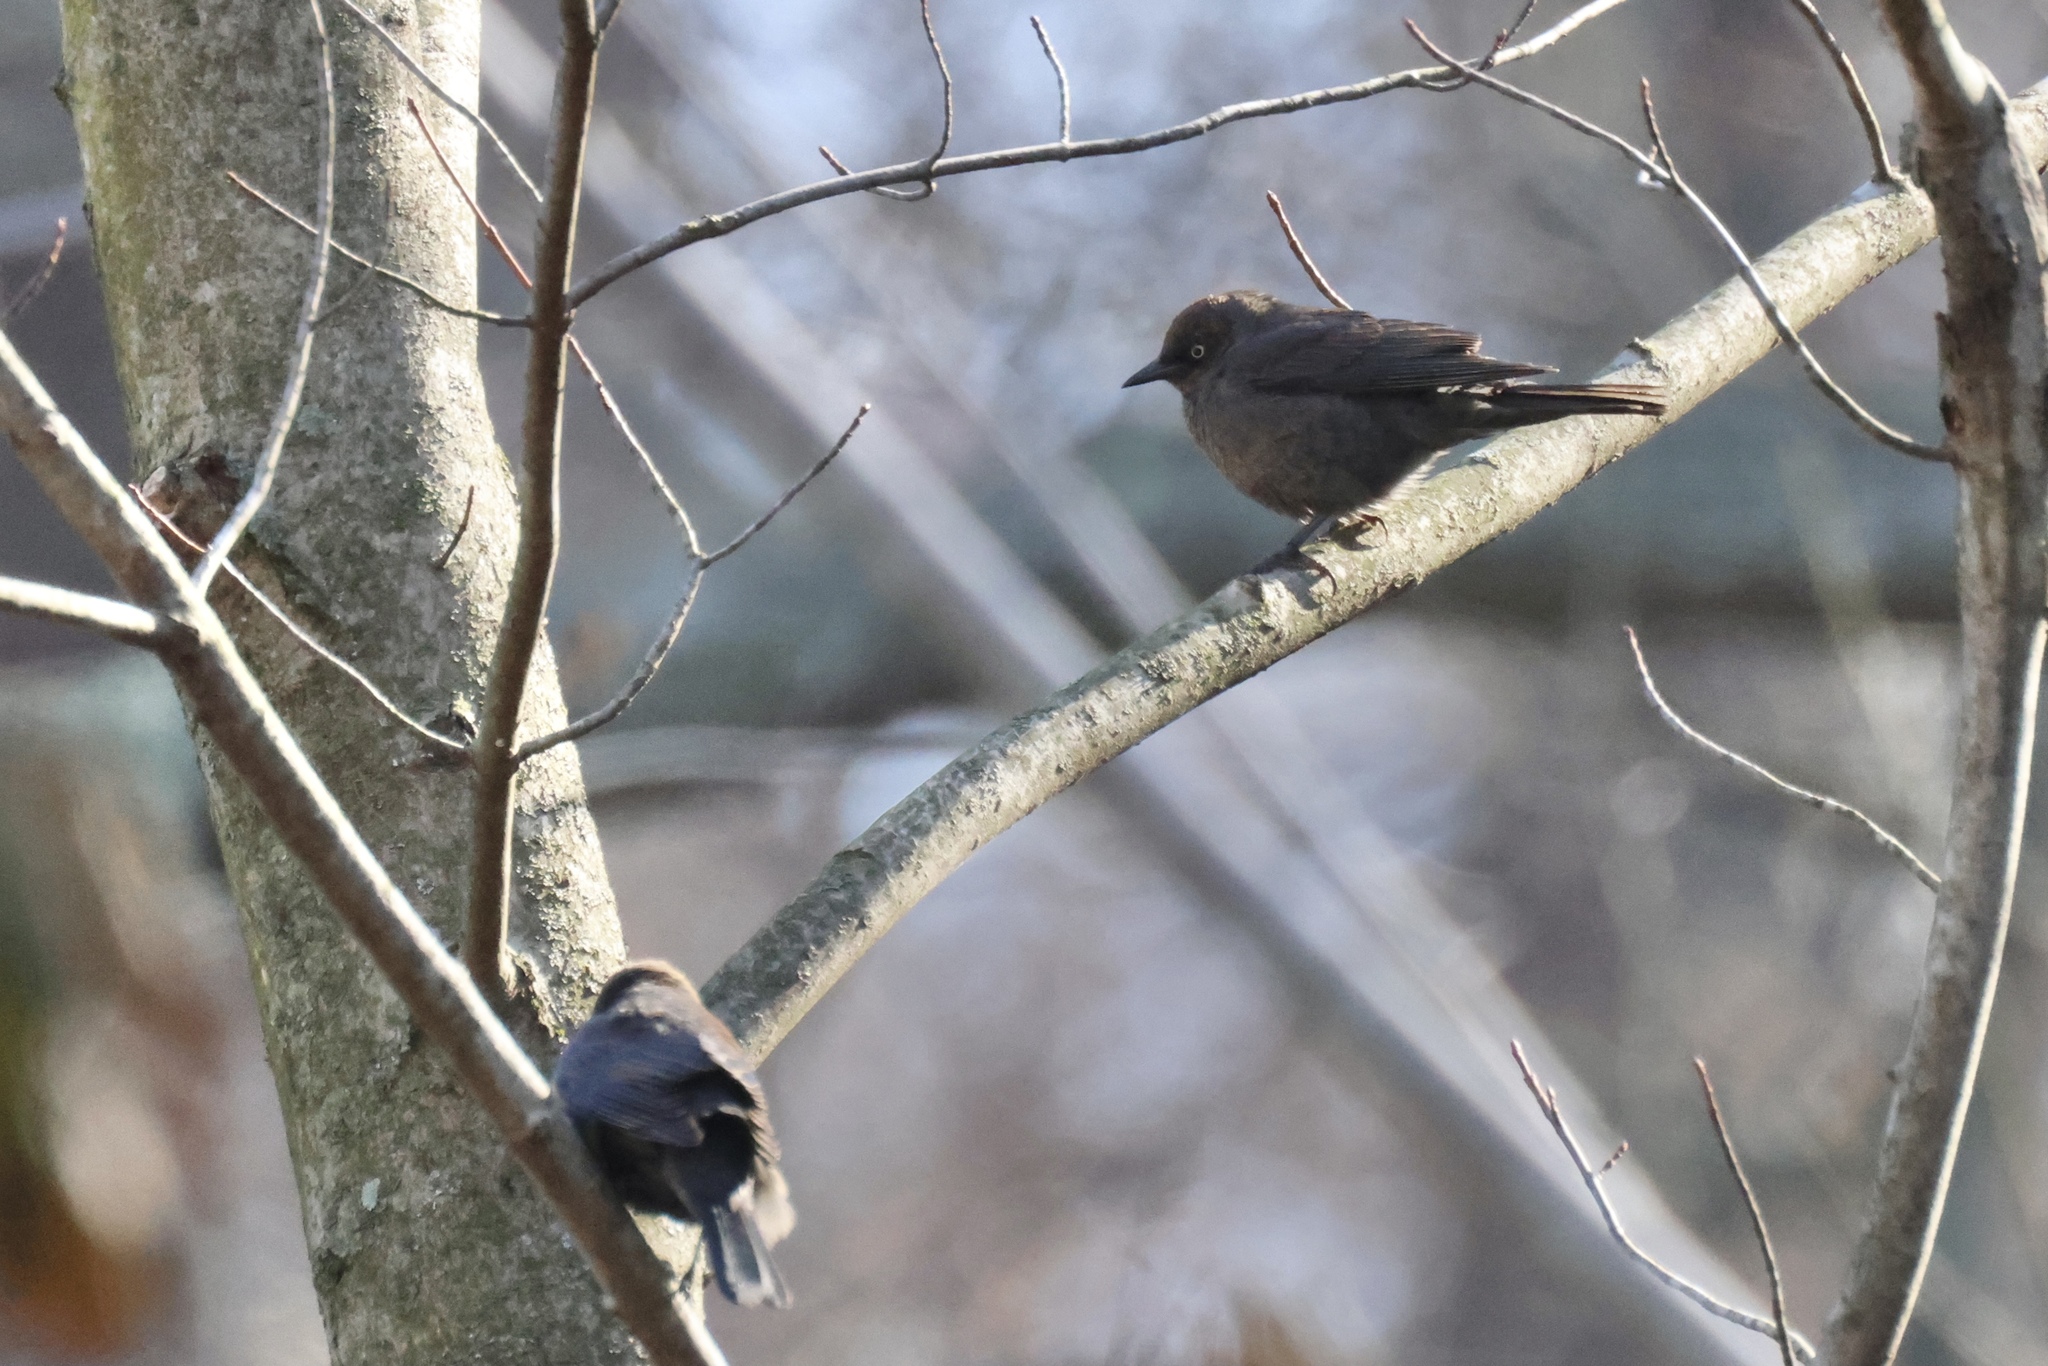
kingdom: Animalia
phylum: Chordata
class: Aves
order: Passeriformes
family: Icteridae
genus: Euphagus
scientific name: Euphagus carolinus
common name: Rusty blackbird
